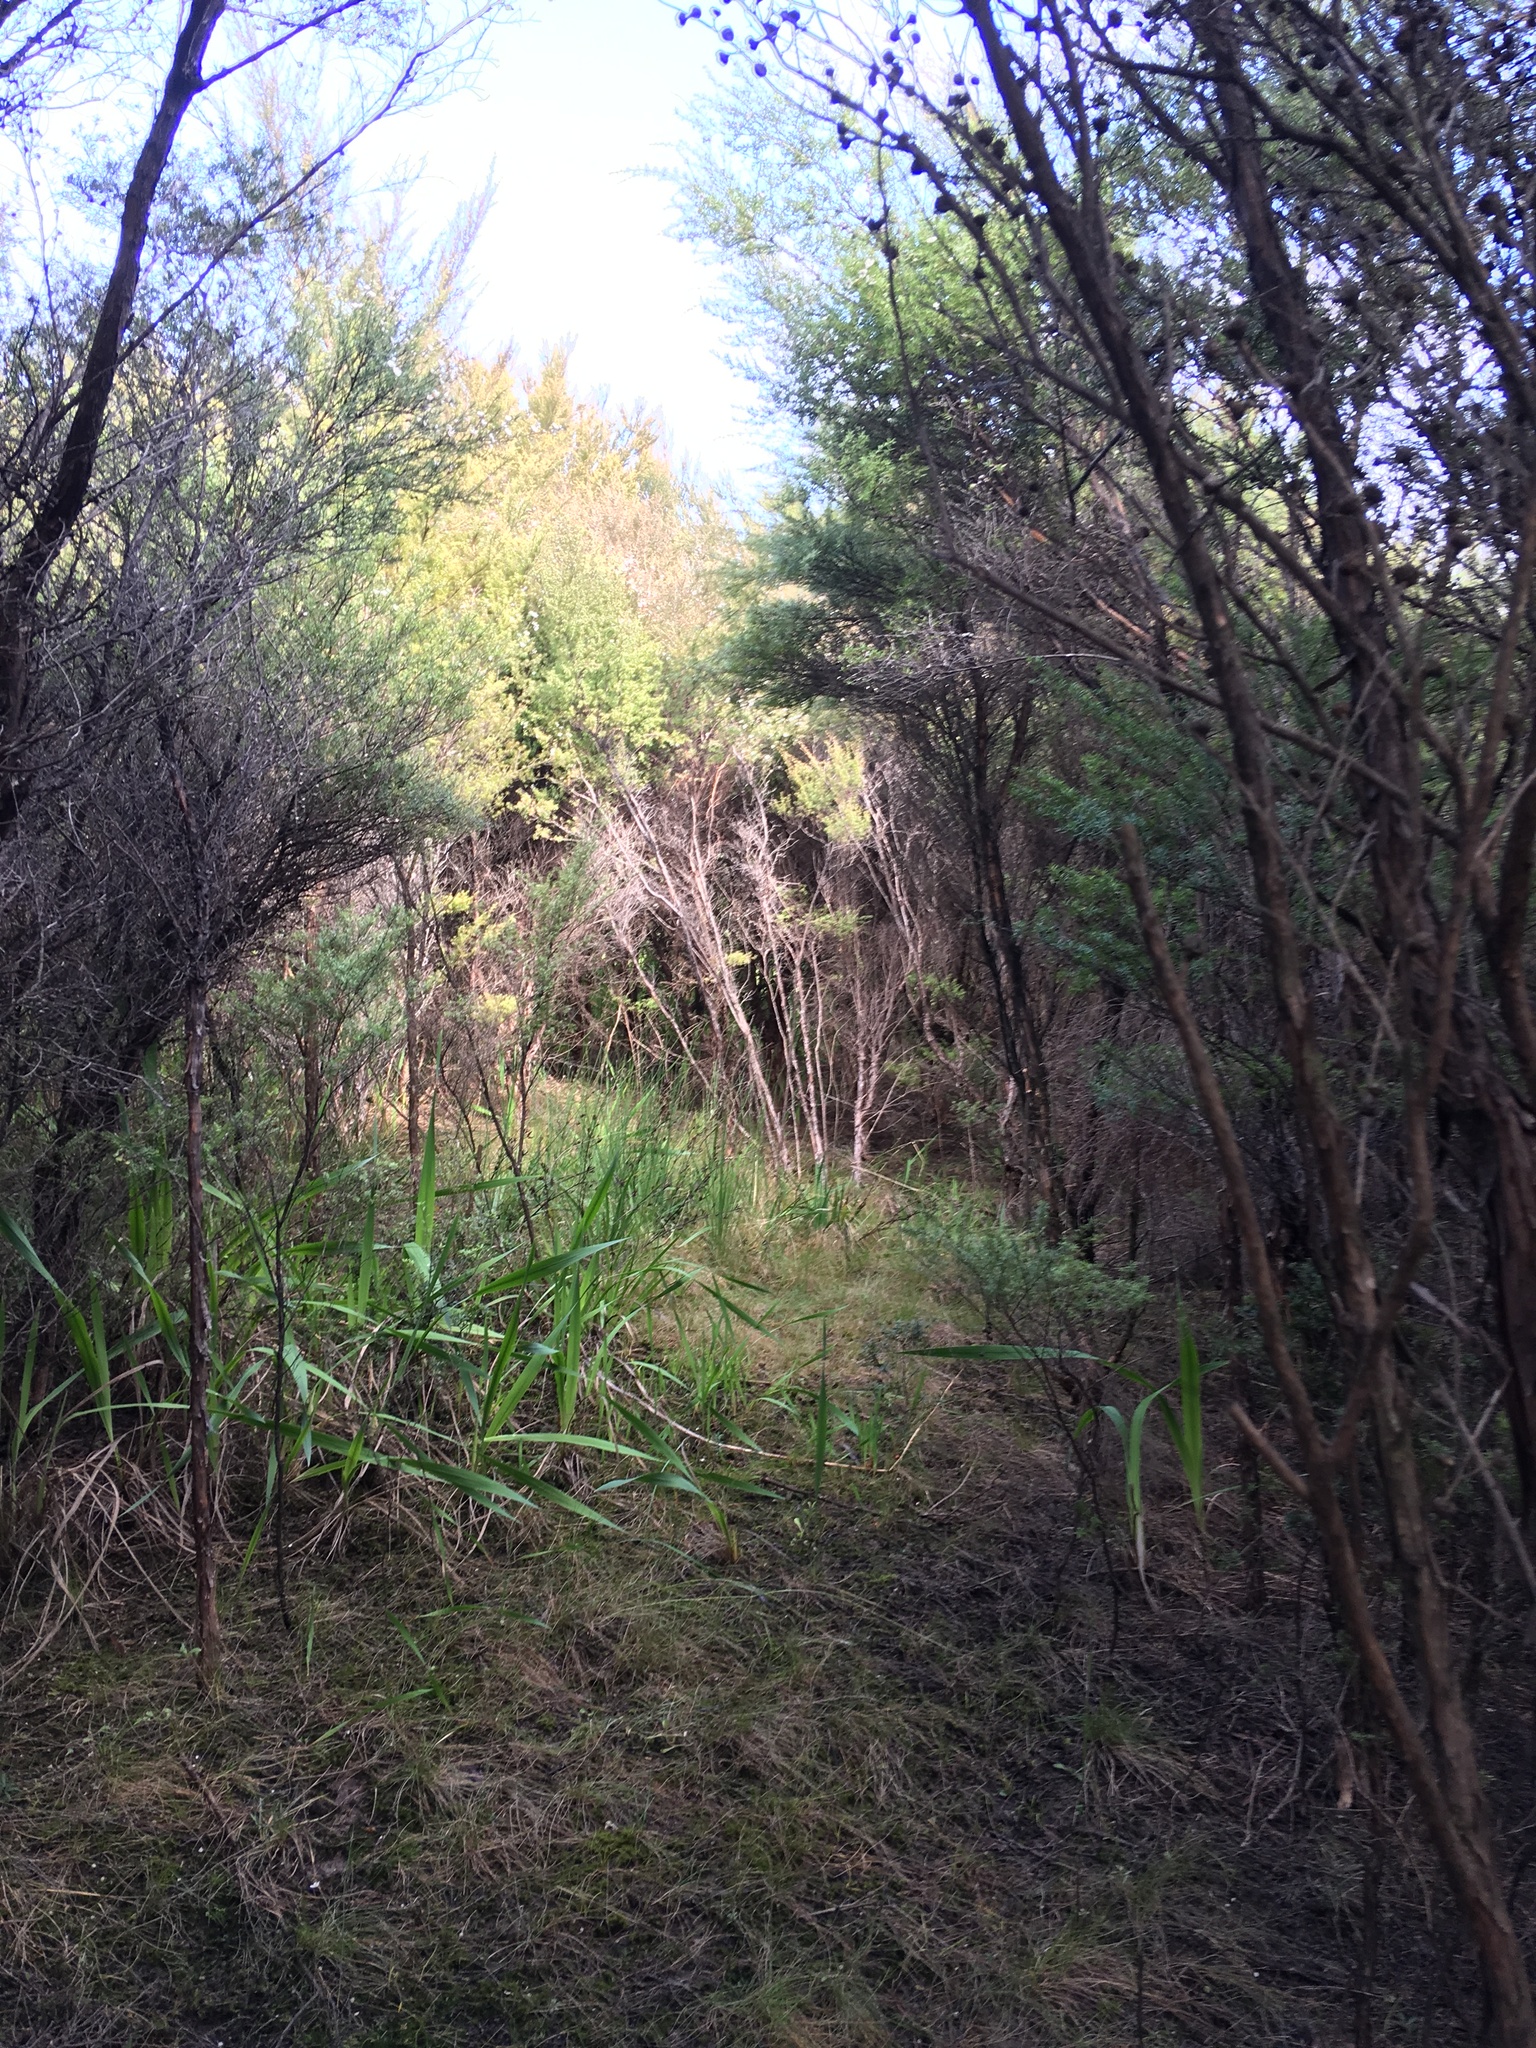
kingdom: Plantae
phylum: Tracheophyta
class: Magnoliopsida
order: Myrtales
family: Myrtaceae
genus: Leptospermum
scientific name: Leptospermum scoparium
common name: Broom tea-tree
